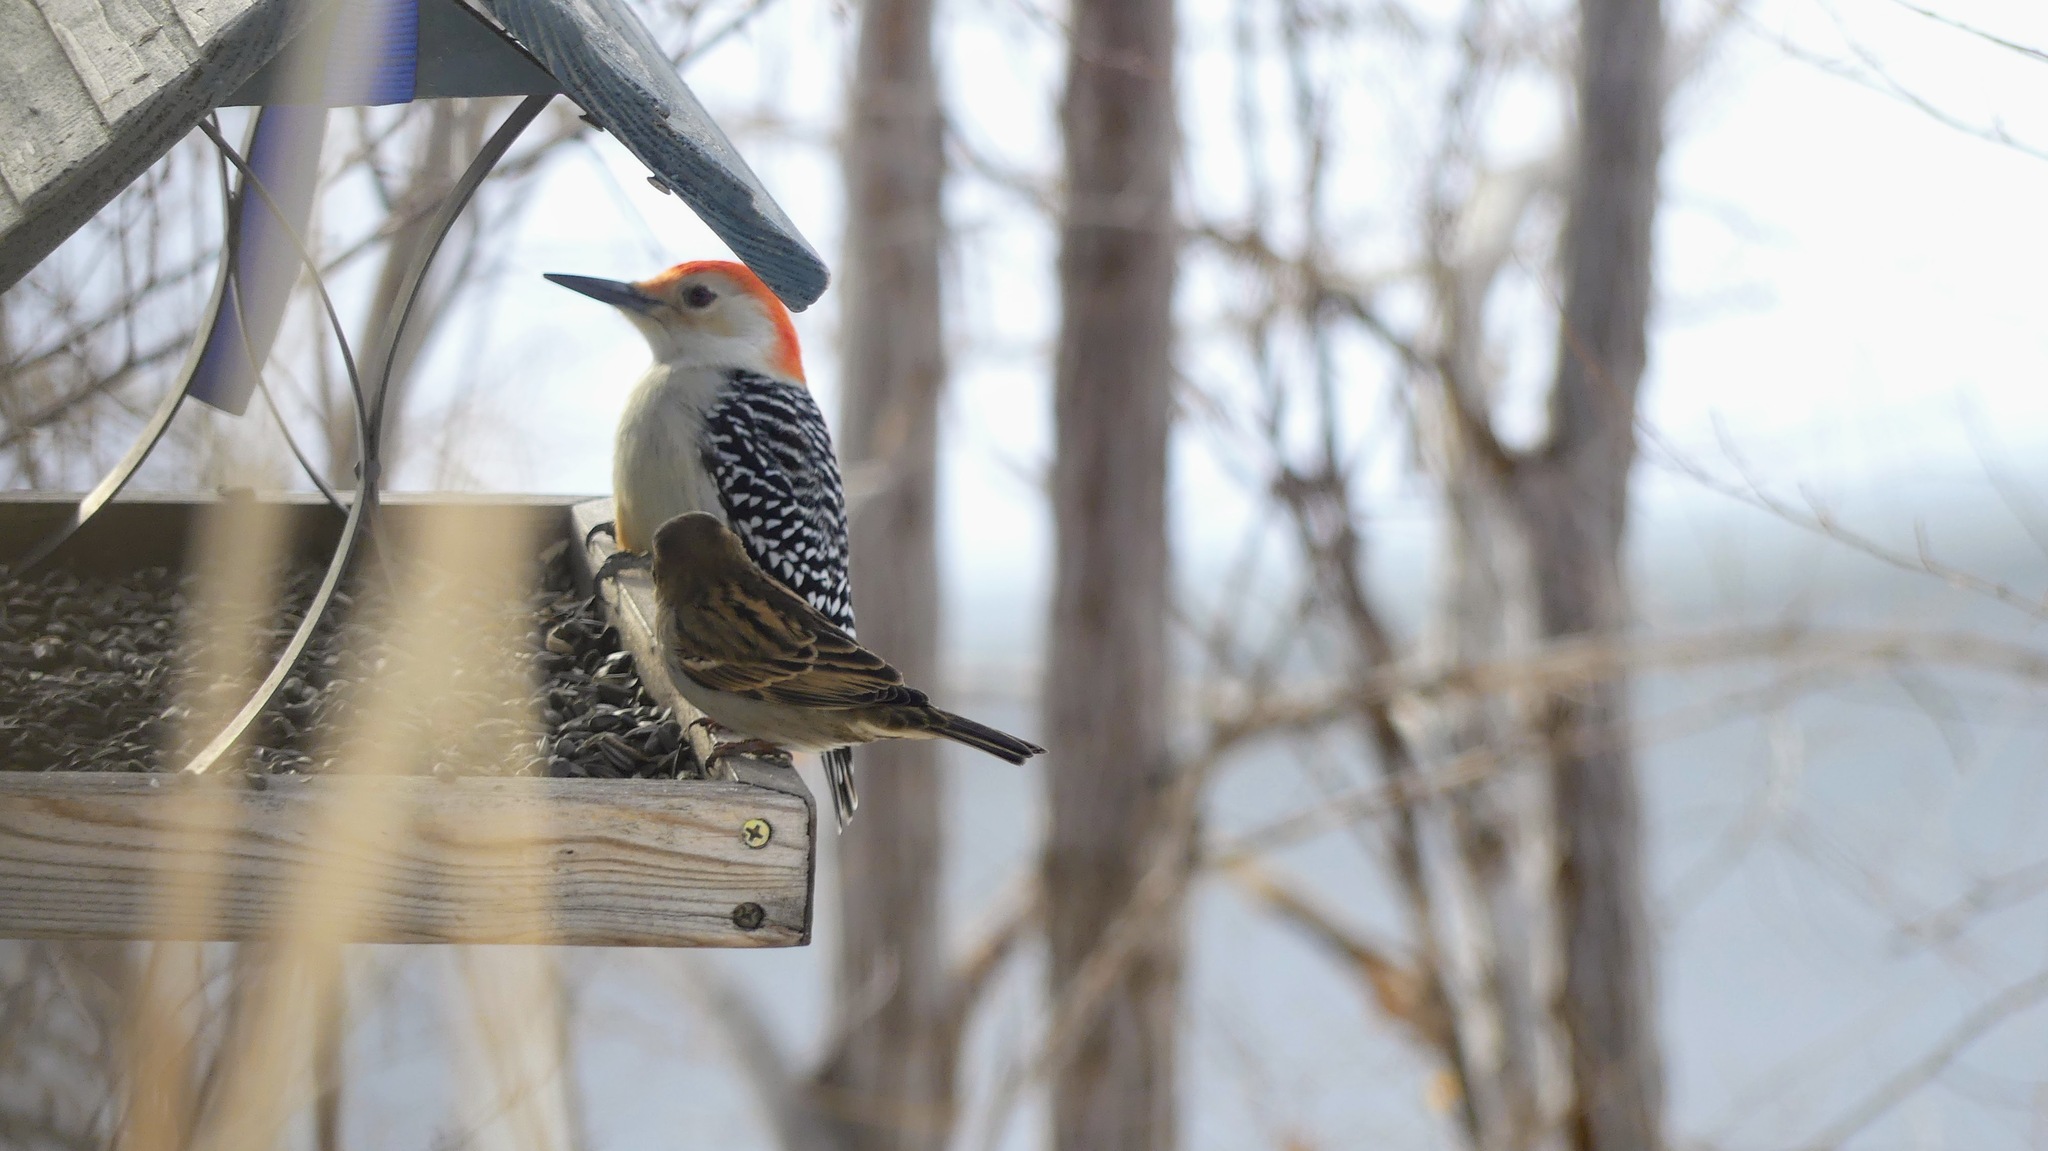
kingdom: Animalia
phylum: Chordata
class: Aves
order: Piciformes
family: Picidae
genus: Melanerpes
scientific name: Melanerpes carolinus
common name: Red-bellied woodpecker
